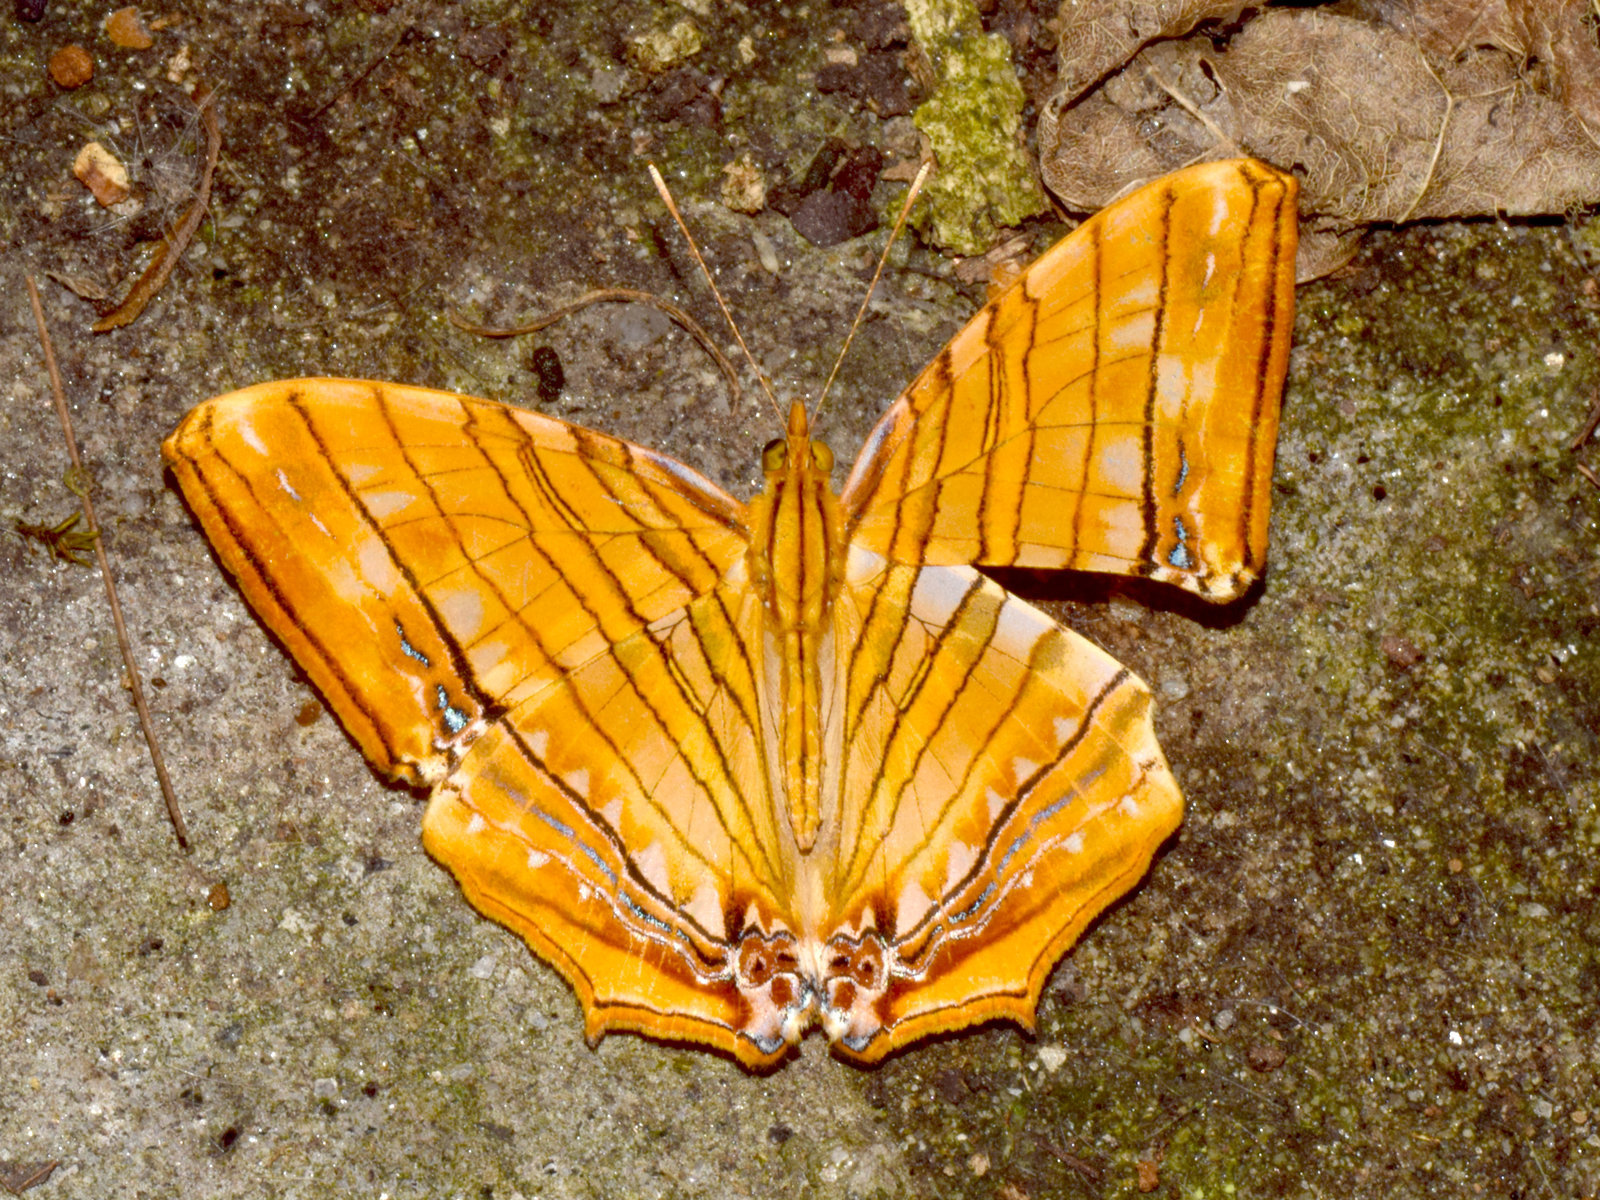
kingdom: Animalia
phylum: Arthropoda
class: Insecta
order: Lepidoptera
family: Nymphalidae
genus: Chersonesia
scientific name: Chersonesia risa
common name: Common maplet
